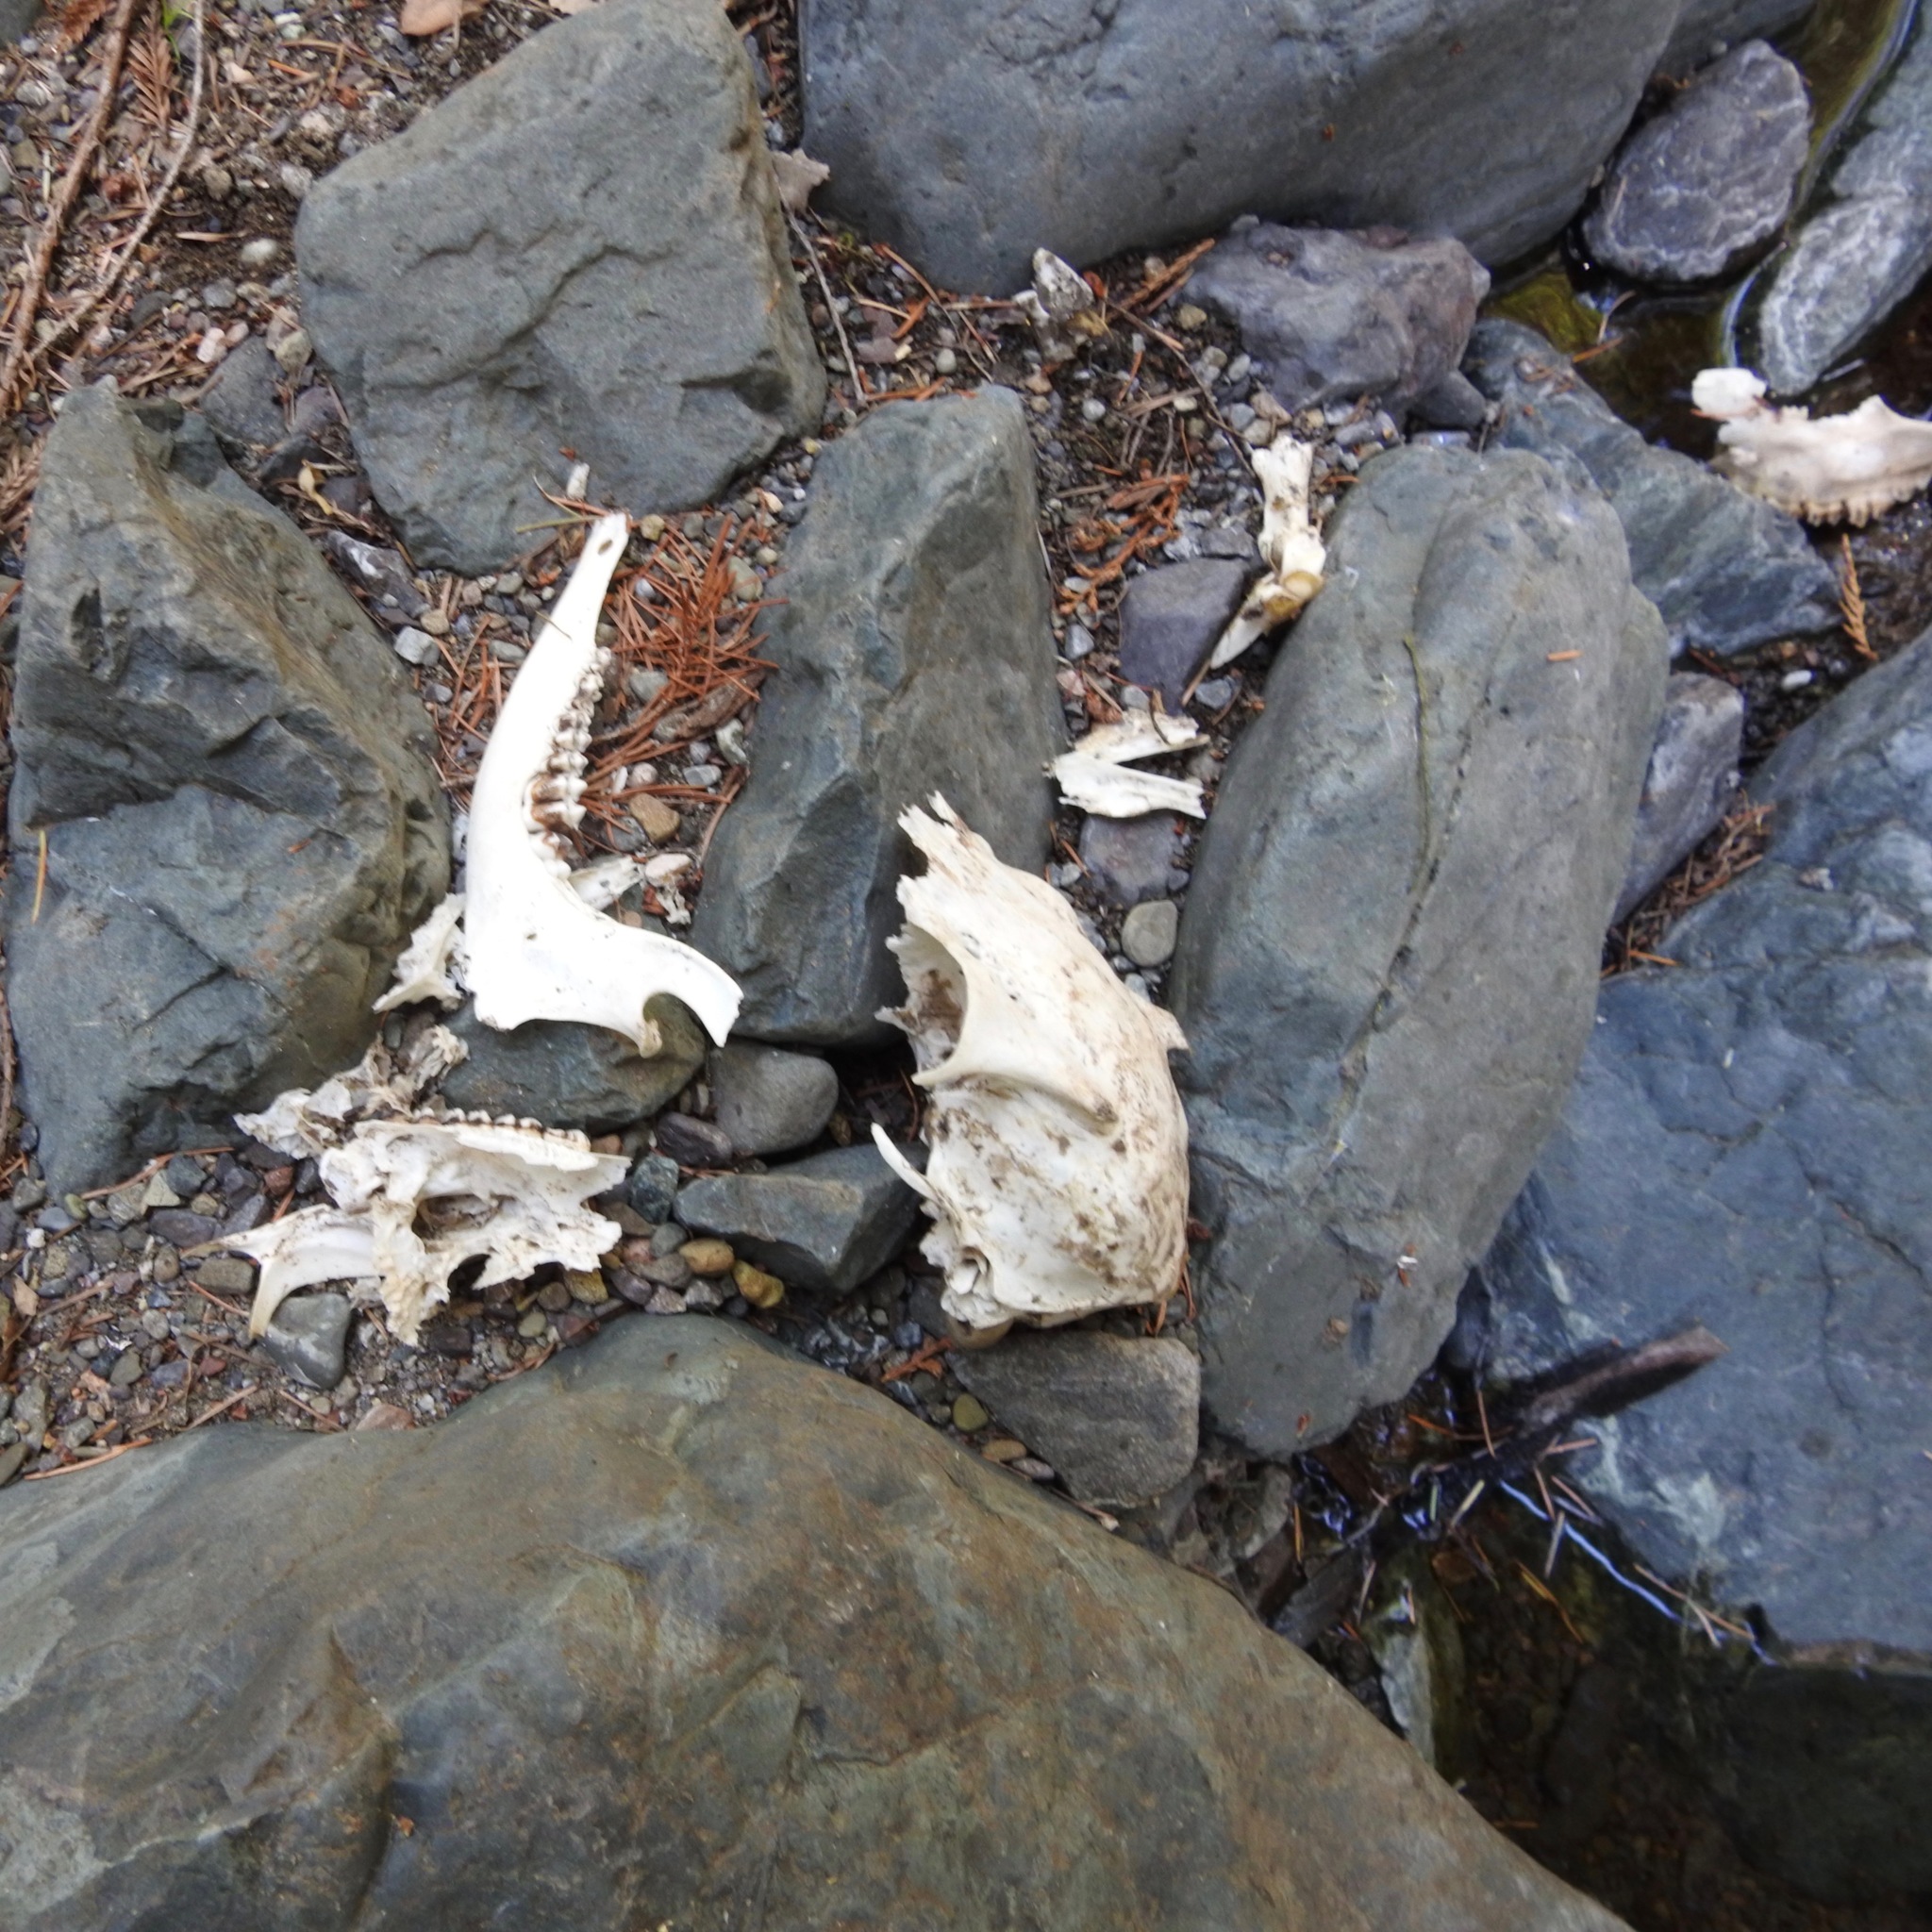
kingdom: Animalia
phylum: Chordata
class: Mammalia
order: Artiodactyla
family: Cervidae
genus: Odocoileus
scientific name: Odocoileus hemionus
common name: Mule deer
